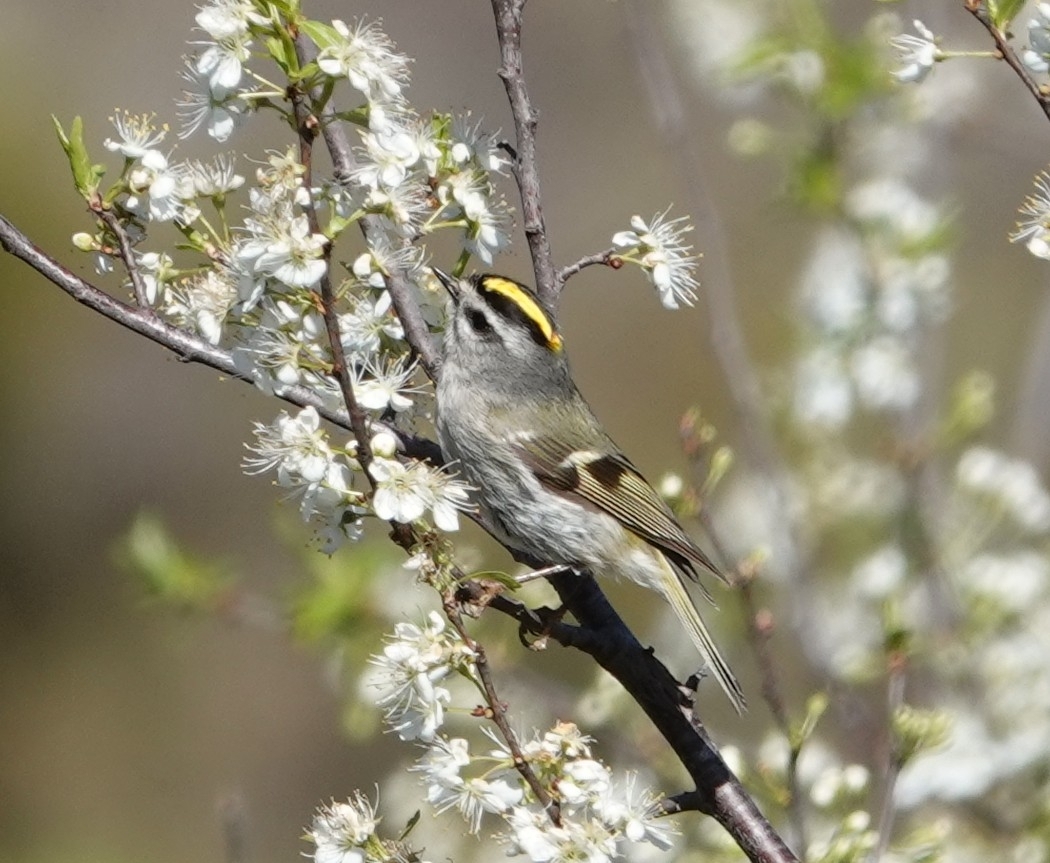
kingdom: Animalia
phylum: Chordata
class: Aves
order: Passeriformes
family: Regulidae
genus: Regulus
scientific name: Regulus satrapa
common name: Golden-crowned kinglet
